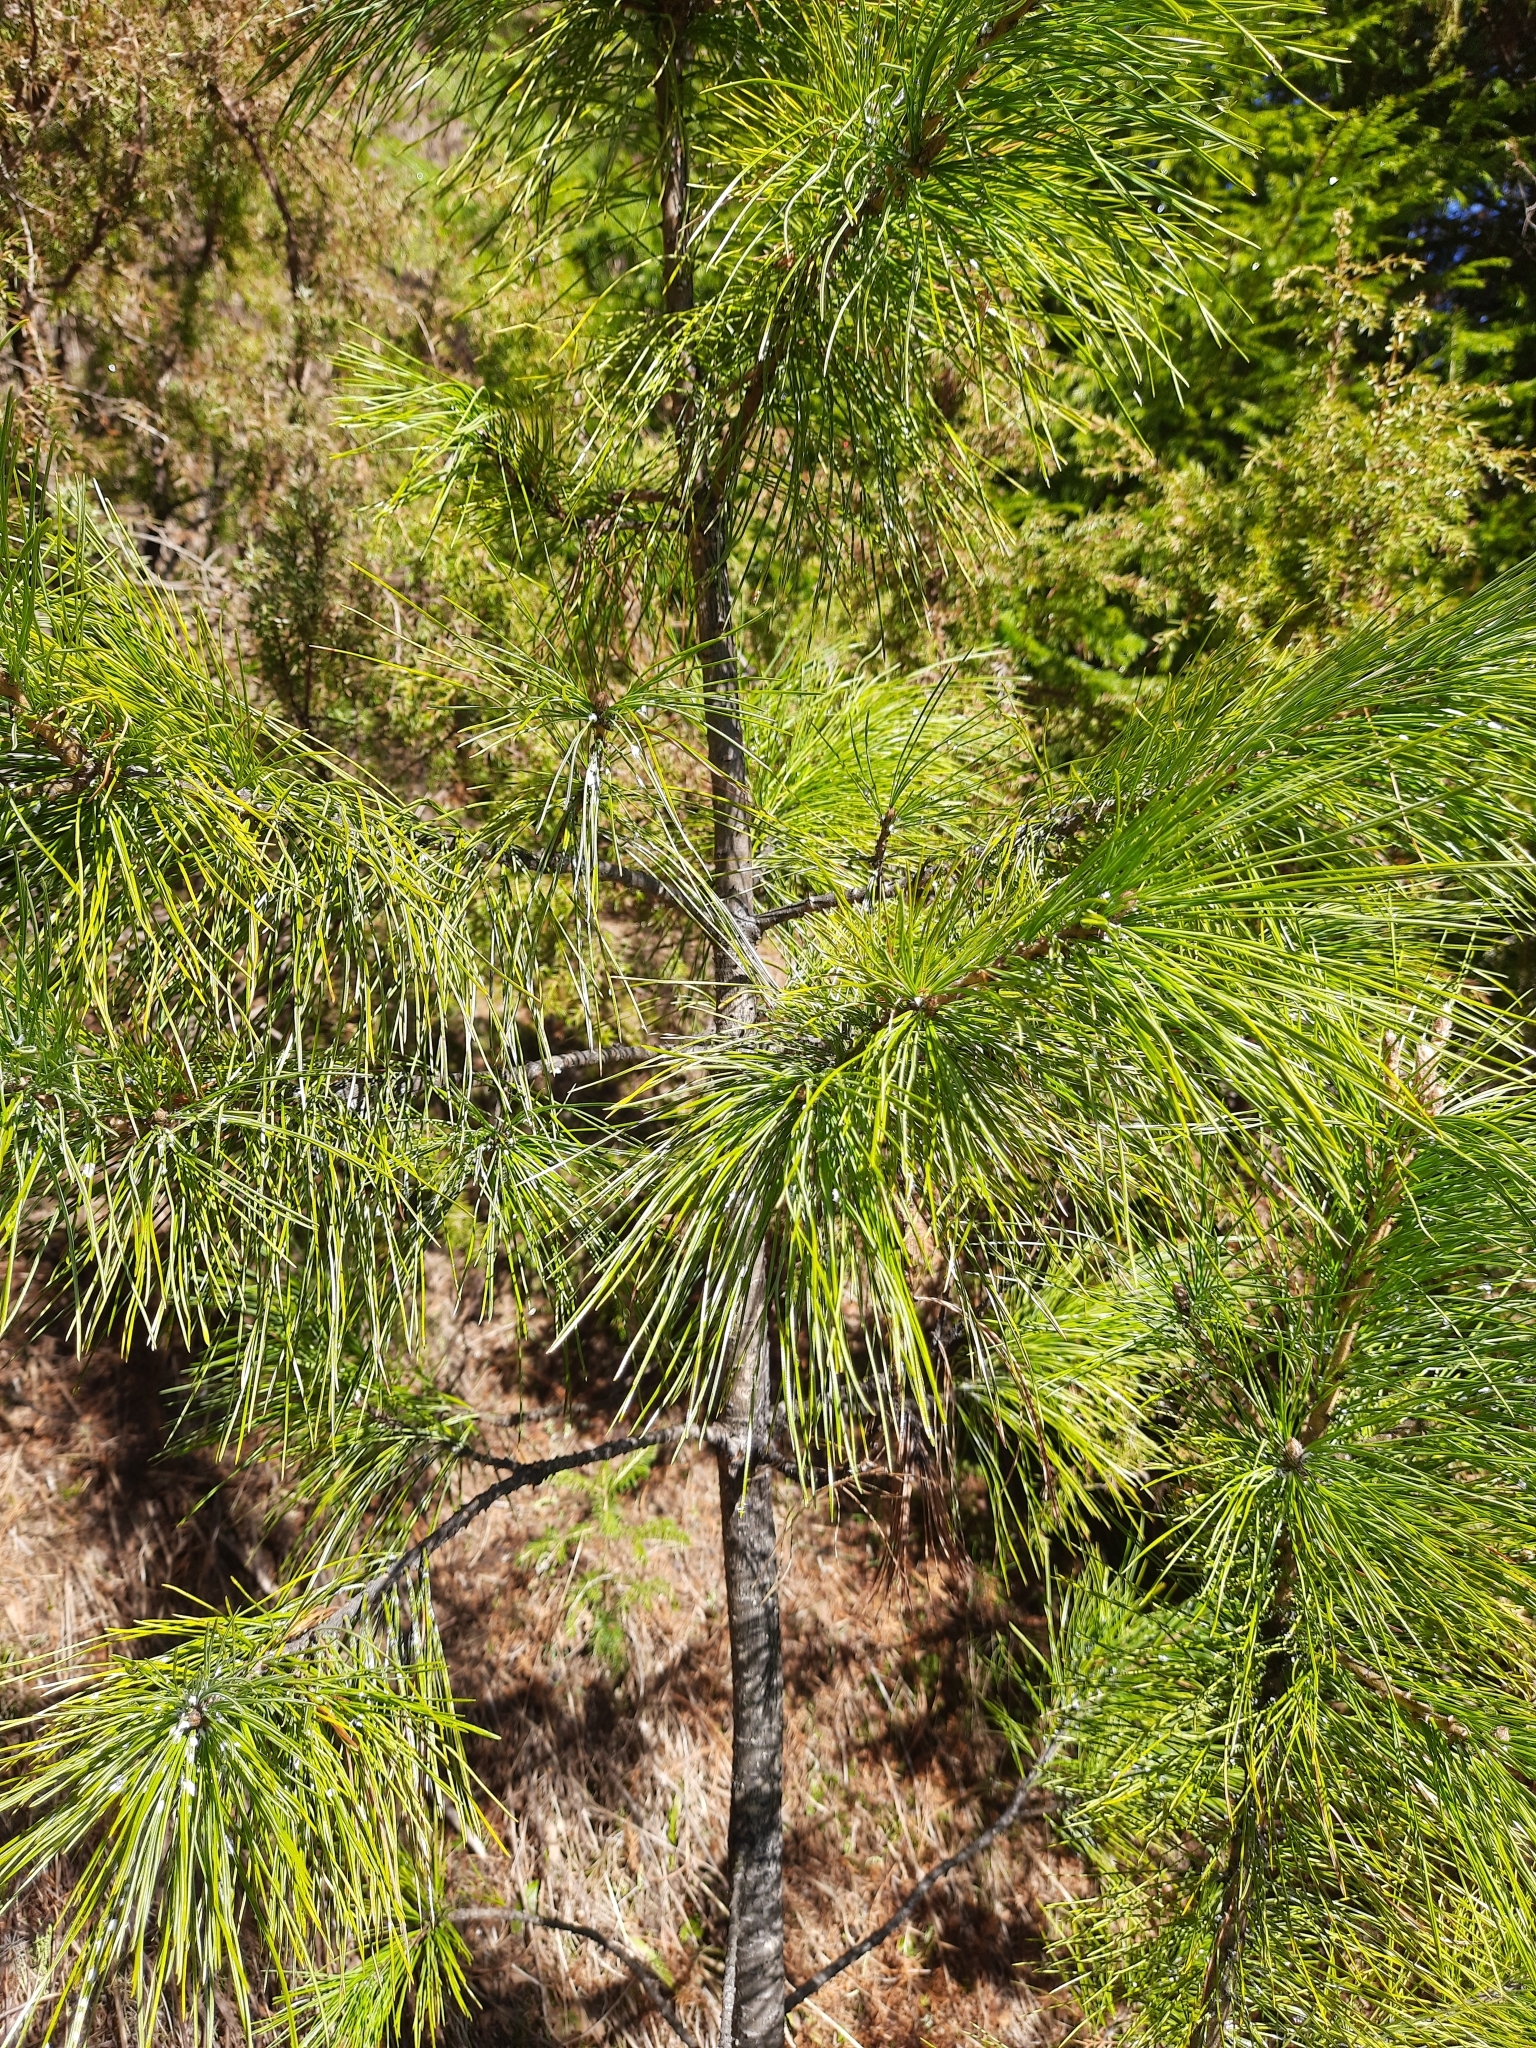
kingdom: Plantae
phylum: Tracheophyta
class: Pinopsida
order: Pinales
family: Pinaceae
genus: Pinus
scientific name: Pinus sibirica
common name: Siberian pine
